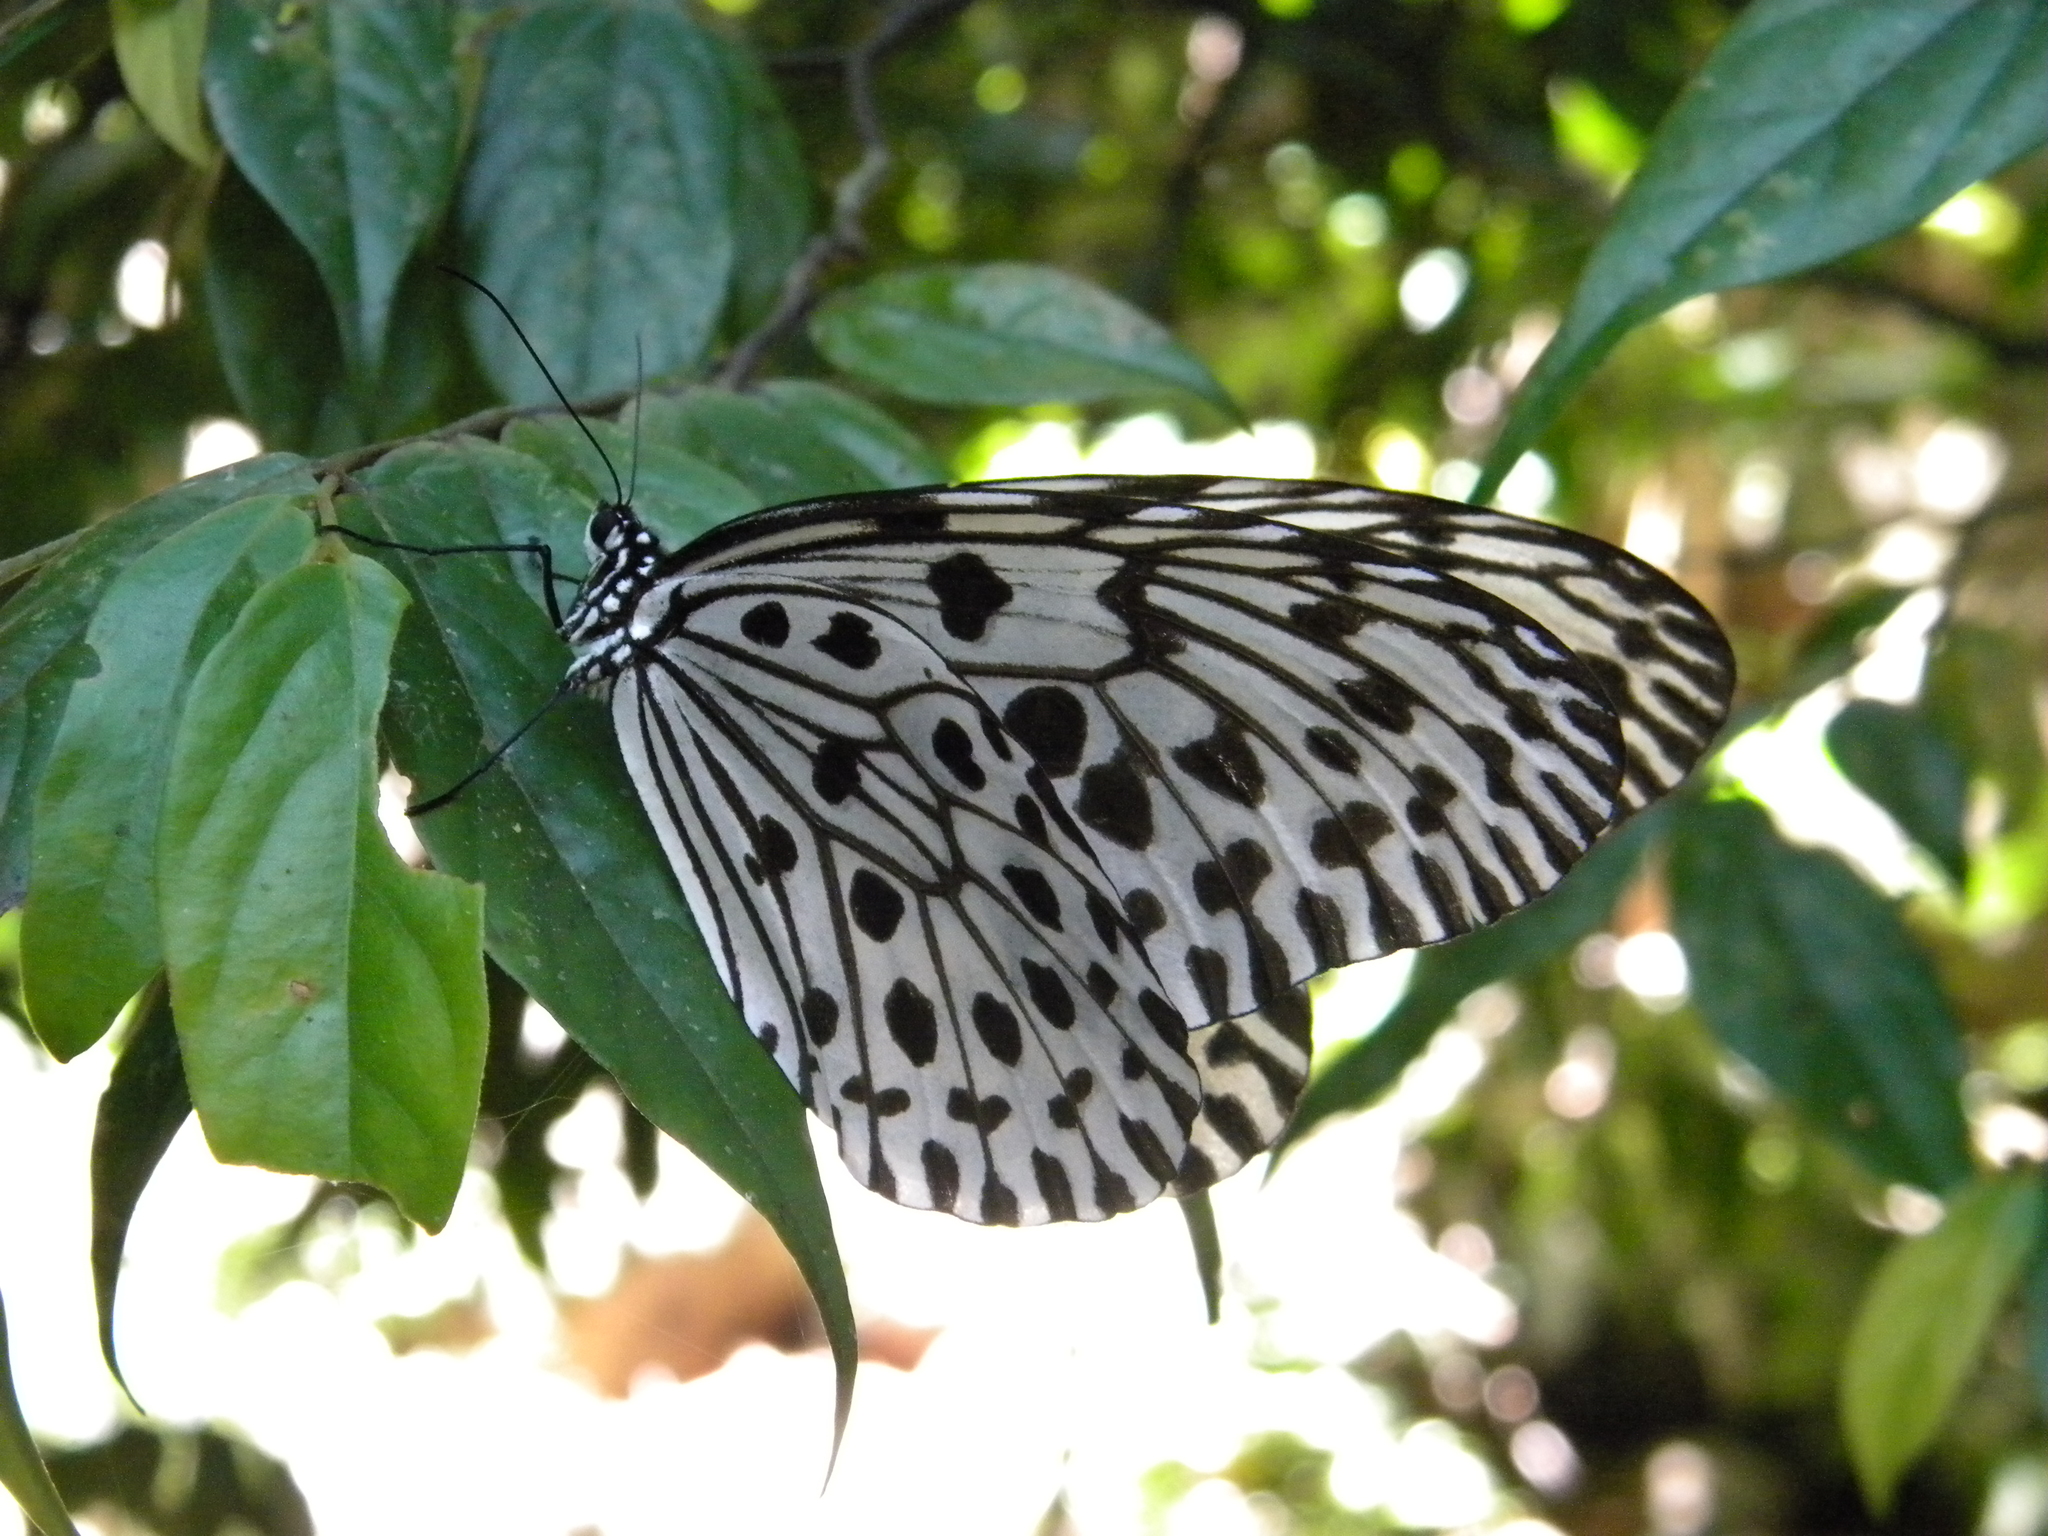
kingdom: Animalia
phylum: Arthropoda
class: Insecta
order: Lepidoptera
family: Nymphalidae
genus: Idea
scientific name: Idea malabarica
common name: Malabar tree-nymph
